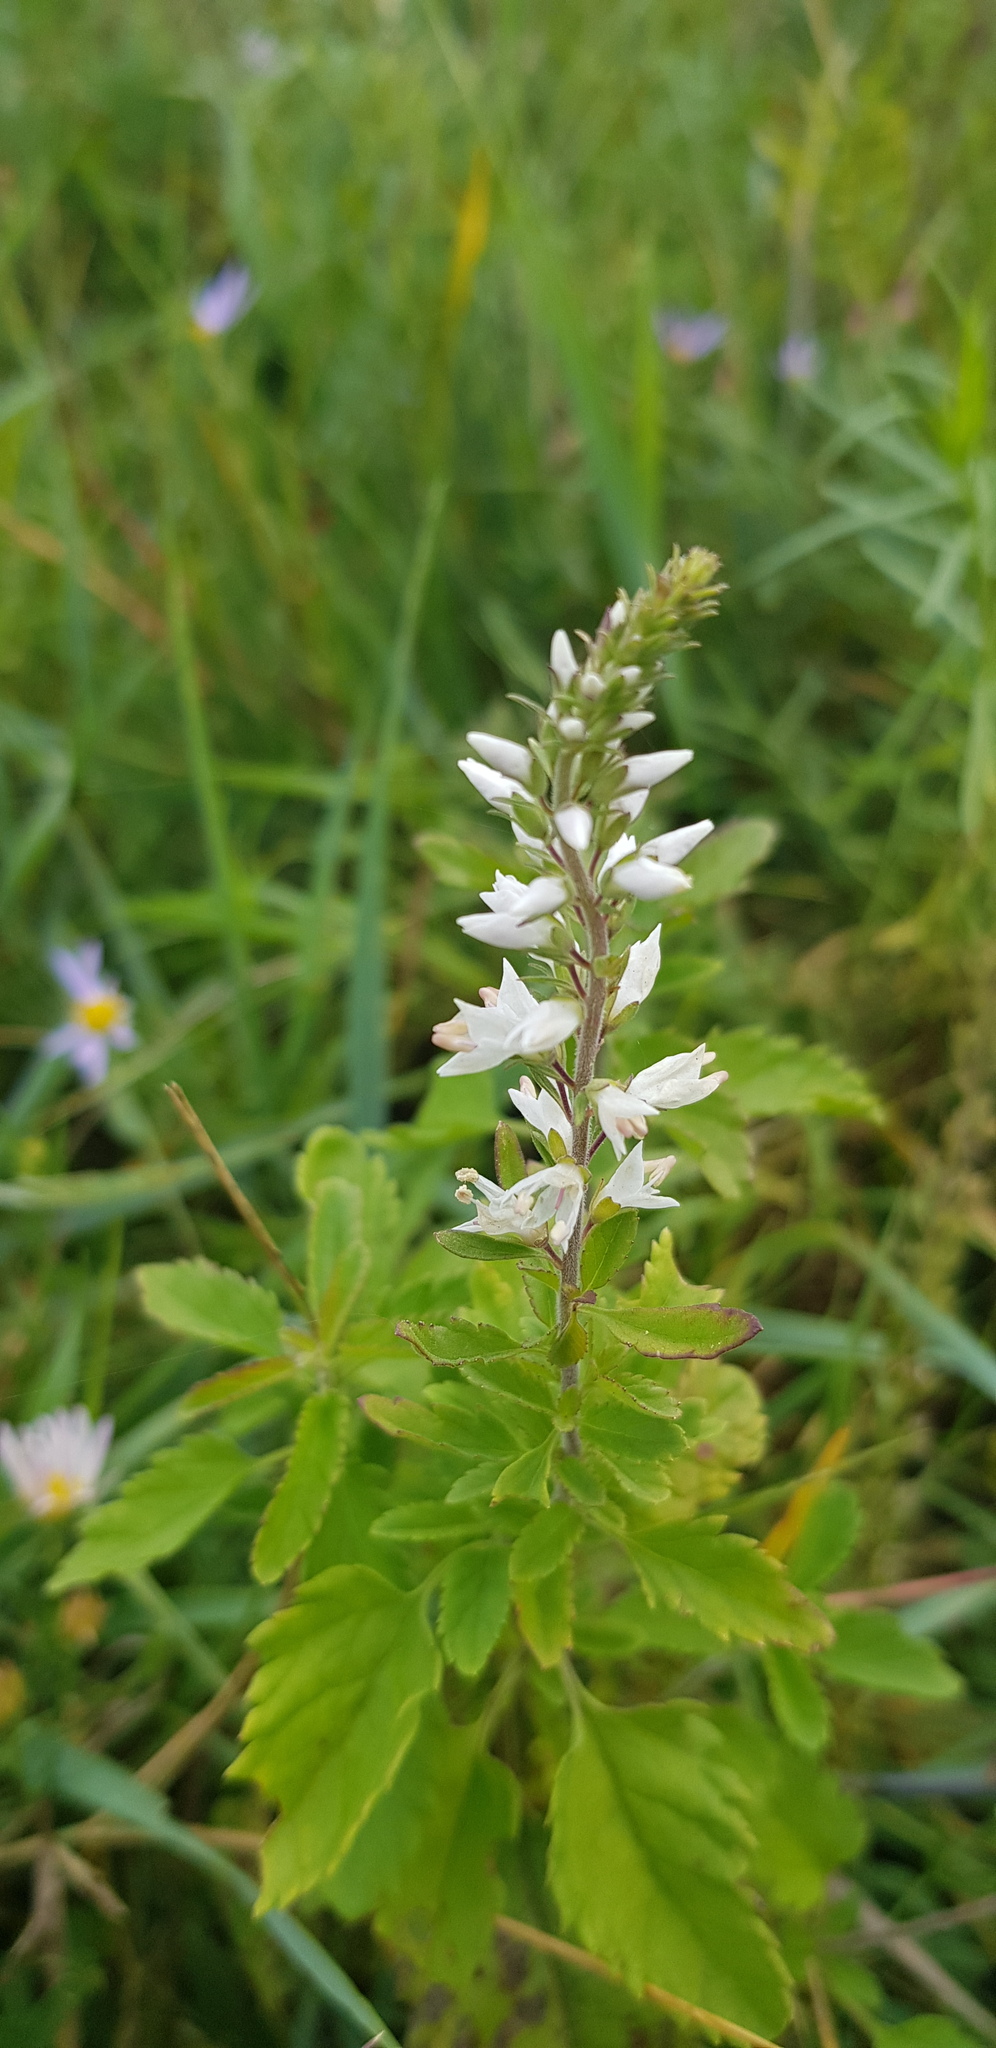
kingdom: Plantae
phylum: Tracheophyta
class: Magnoliopsida
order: Lamiales
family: Plantaginaceae
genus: Veronica
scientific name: Veronica daurica
